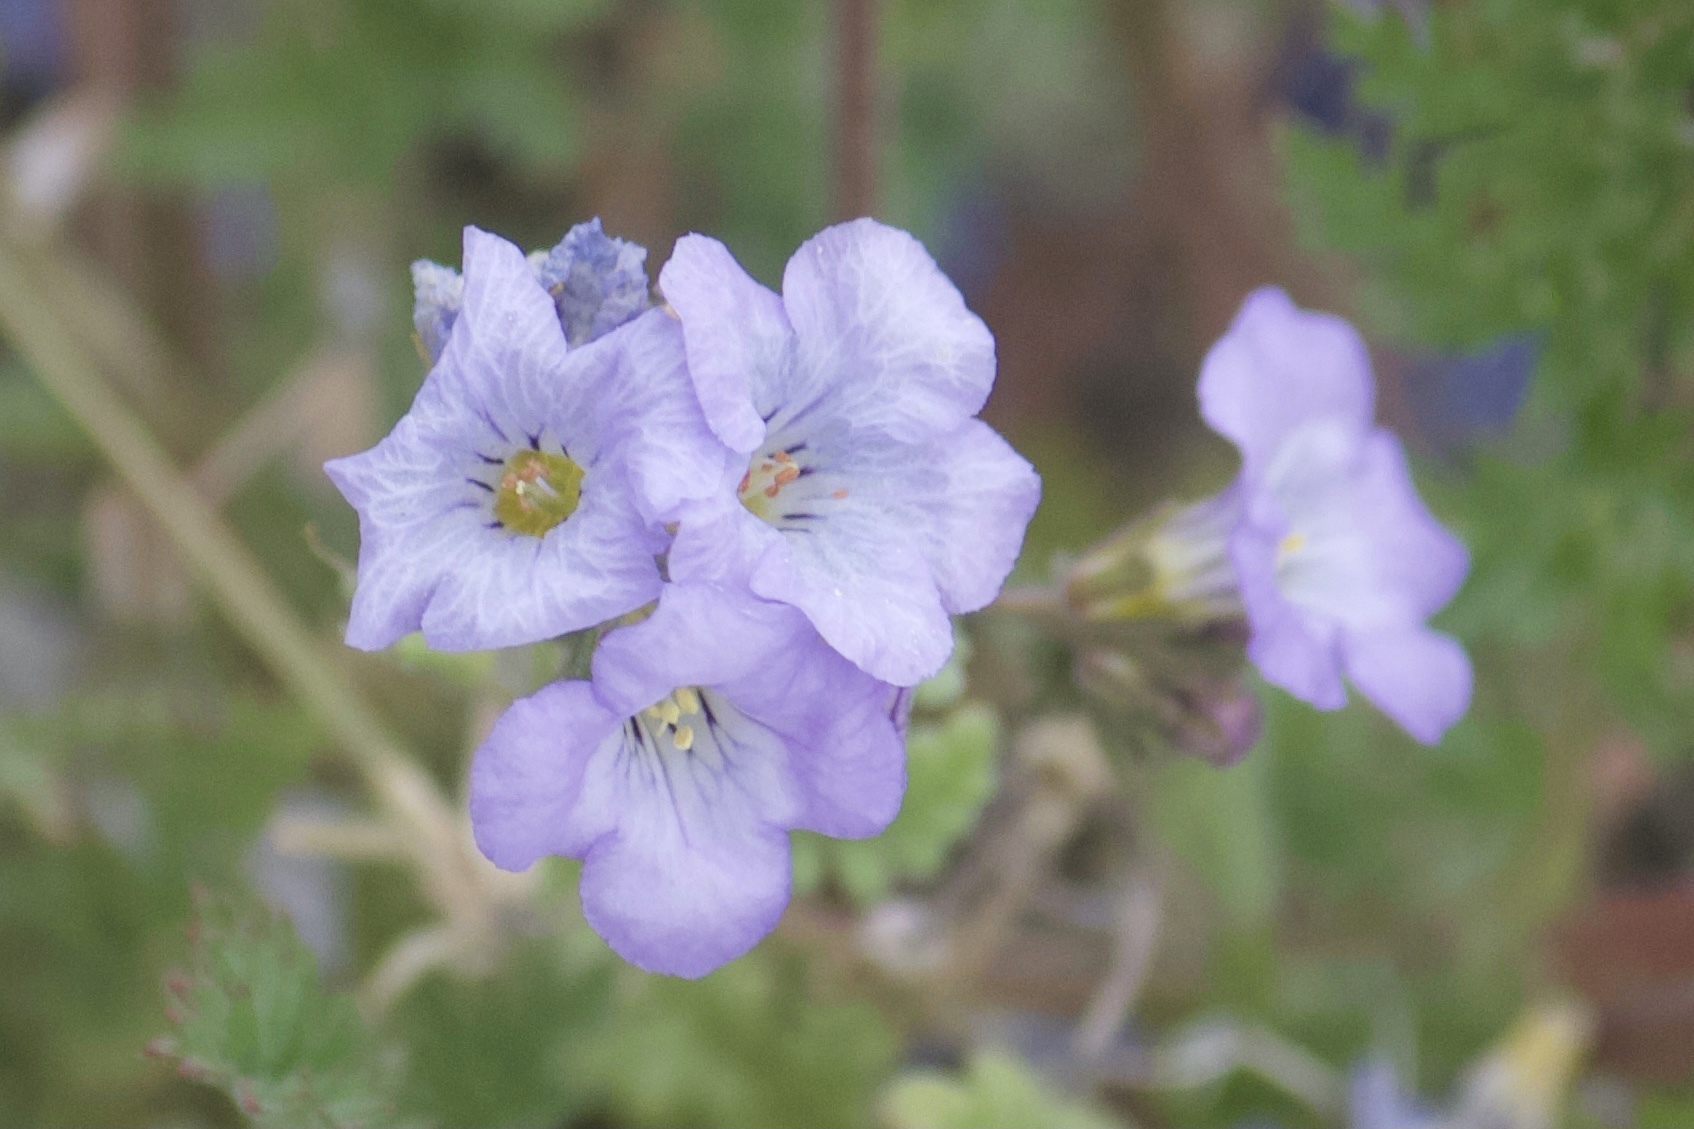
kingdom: Plantae
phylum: Tracheophyta
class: Magnoliopsida
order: Boraginales
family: Hydrophyllaceae
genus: Phacelia
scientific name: Phacelia fremontii
